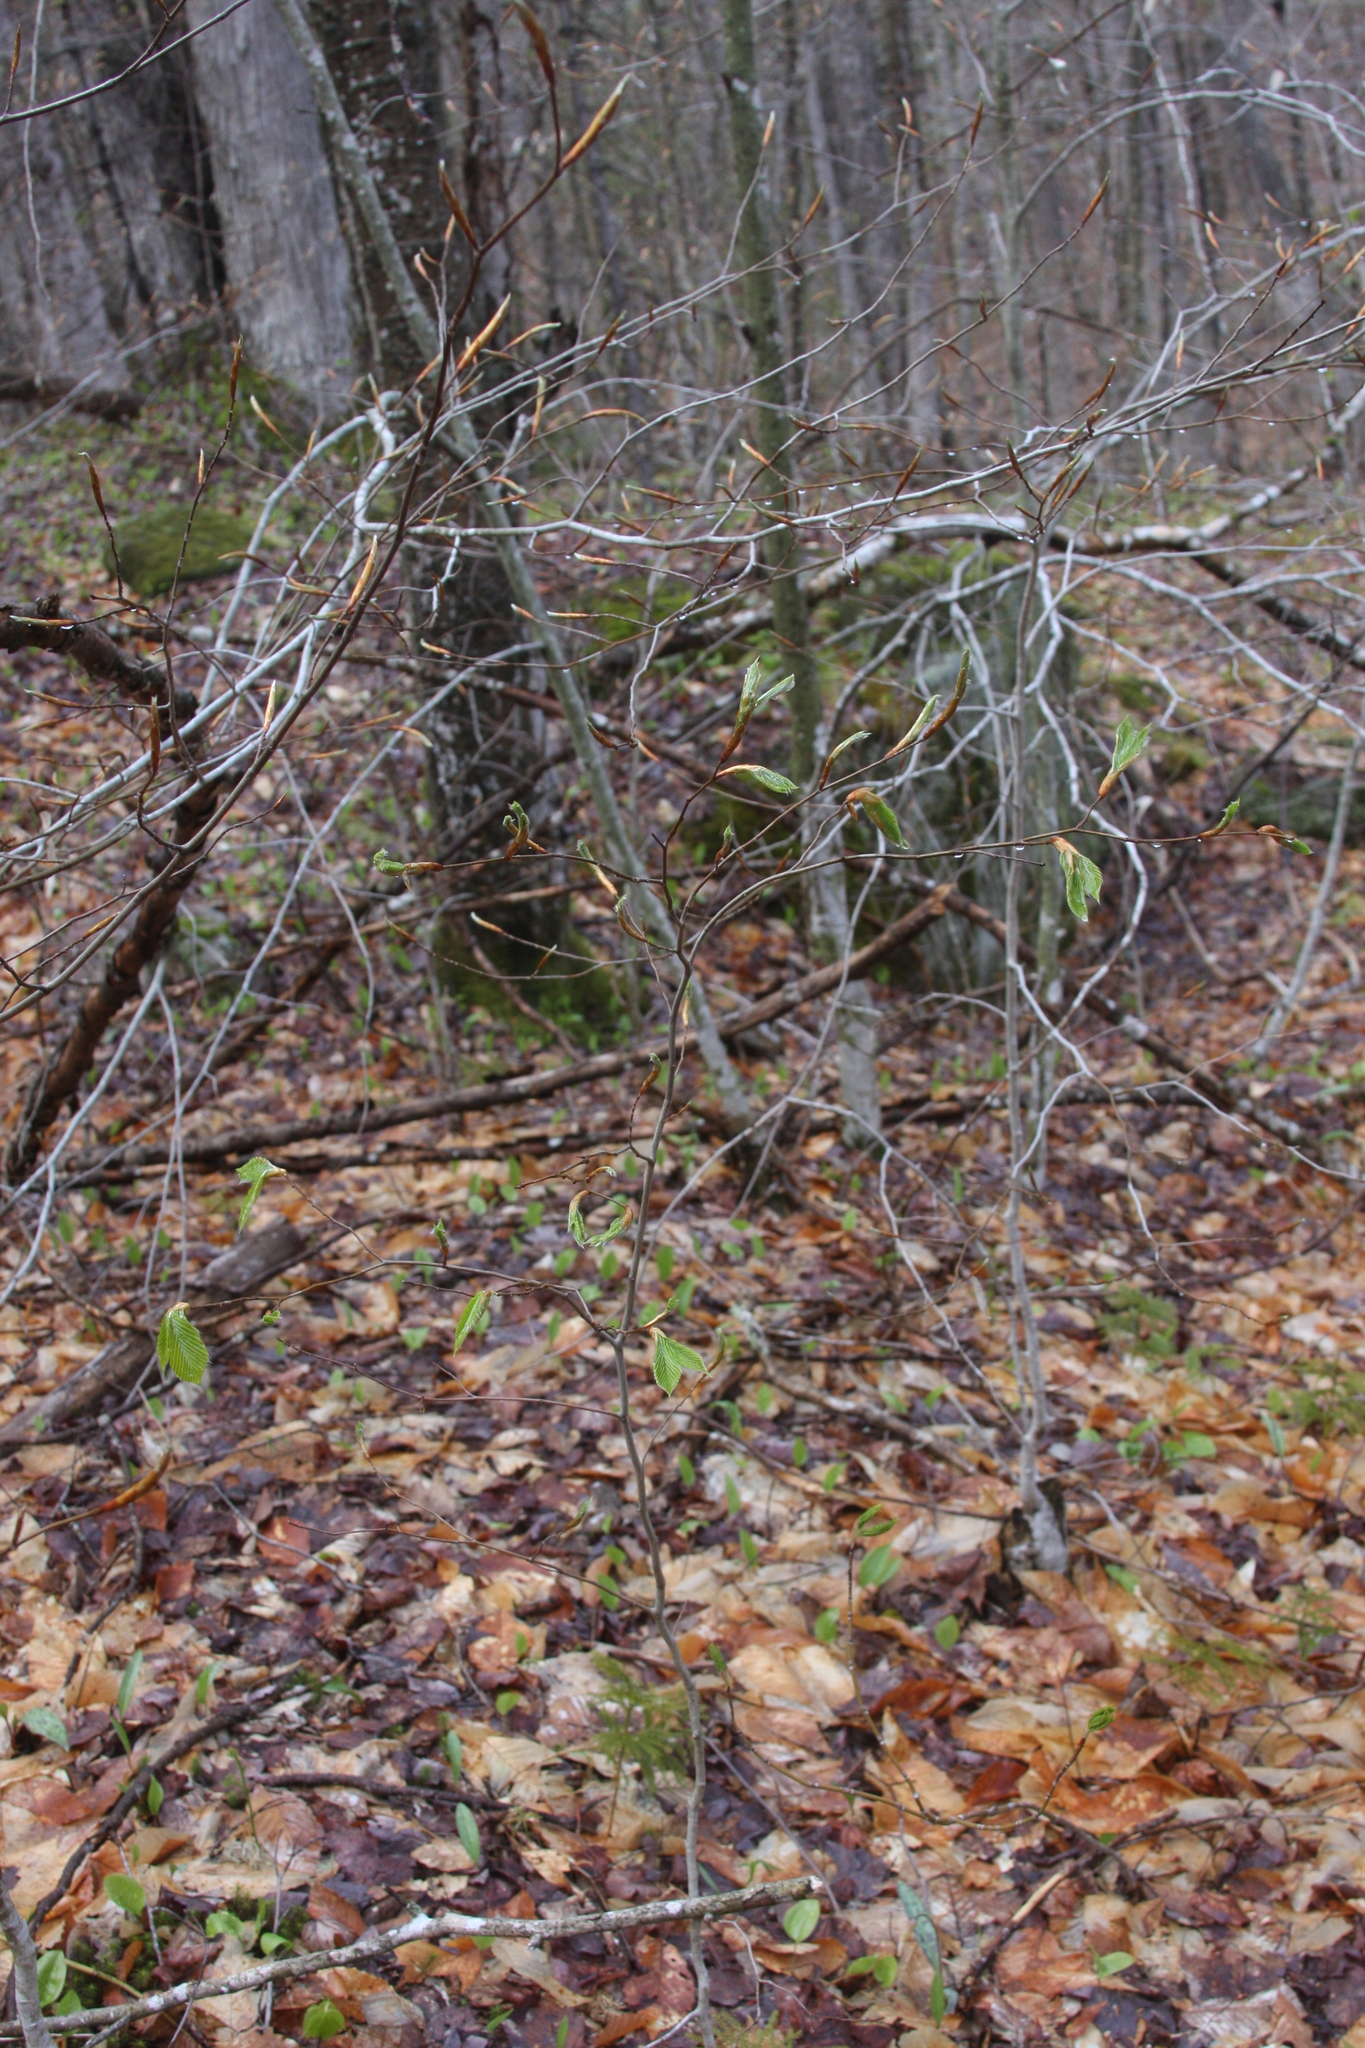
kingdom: Plantae
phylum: Tracheophyta
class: Magnoliopsida
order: Fagales
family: Fagaceae
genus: Fagus
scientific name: Fagus grandifolia
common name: American beech
